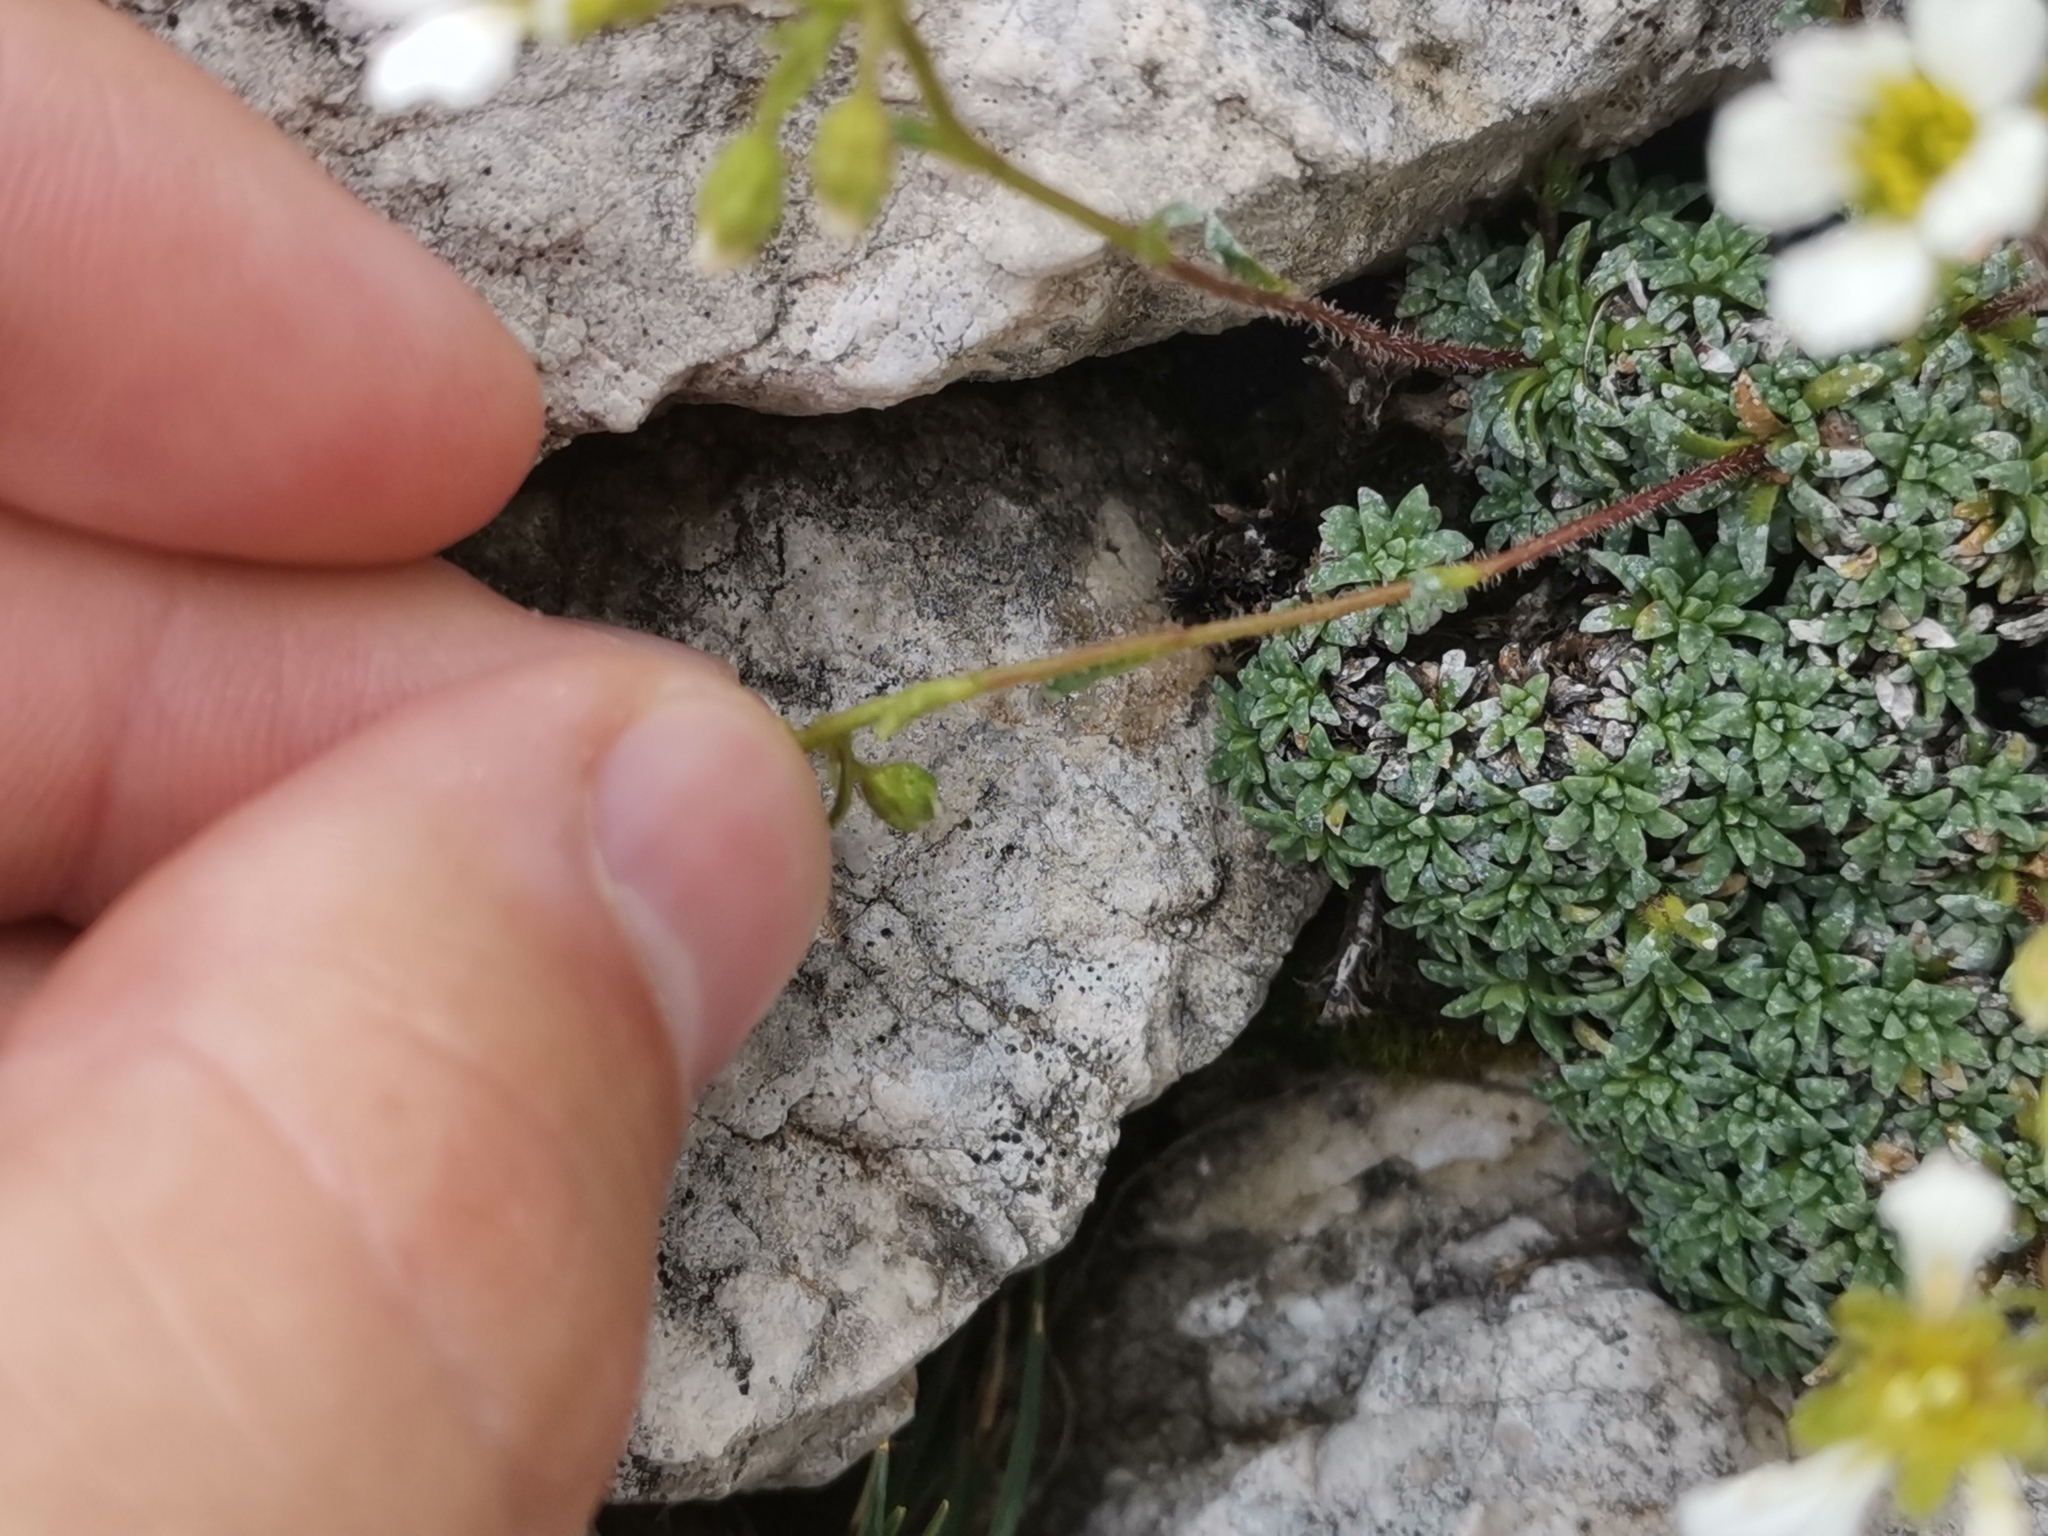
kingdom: Plantae
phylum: Tracheophyta
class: Magnoliopsida
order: Saxifragales
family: Saxifragaceae
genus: Saxifraga
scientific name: Saxifraga caesia
